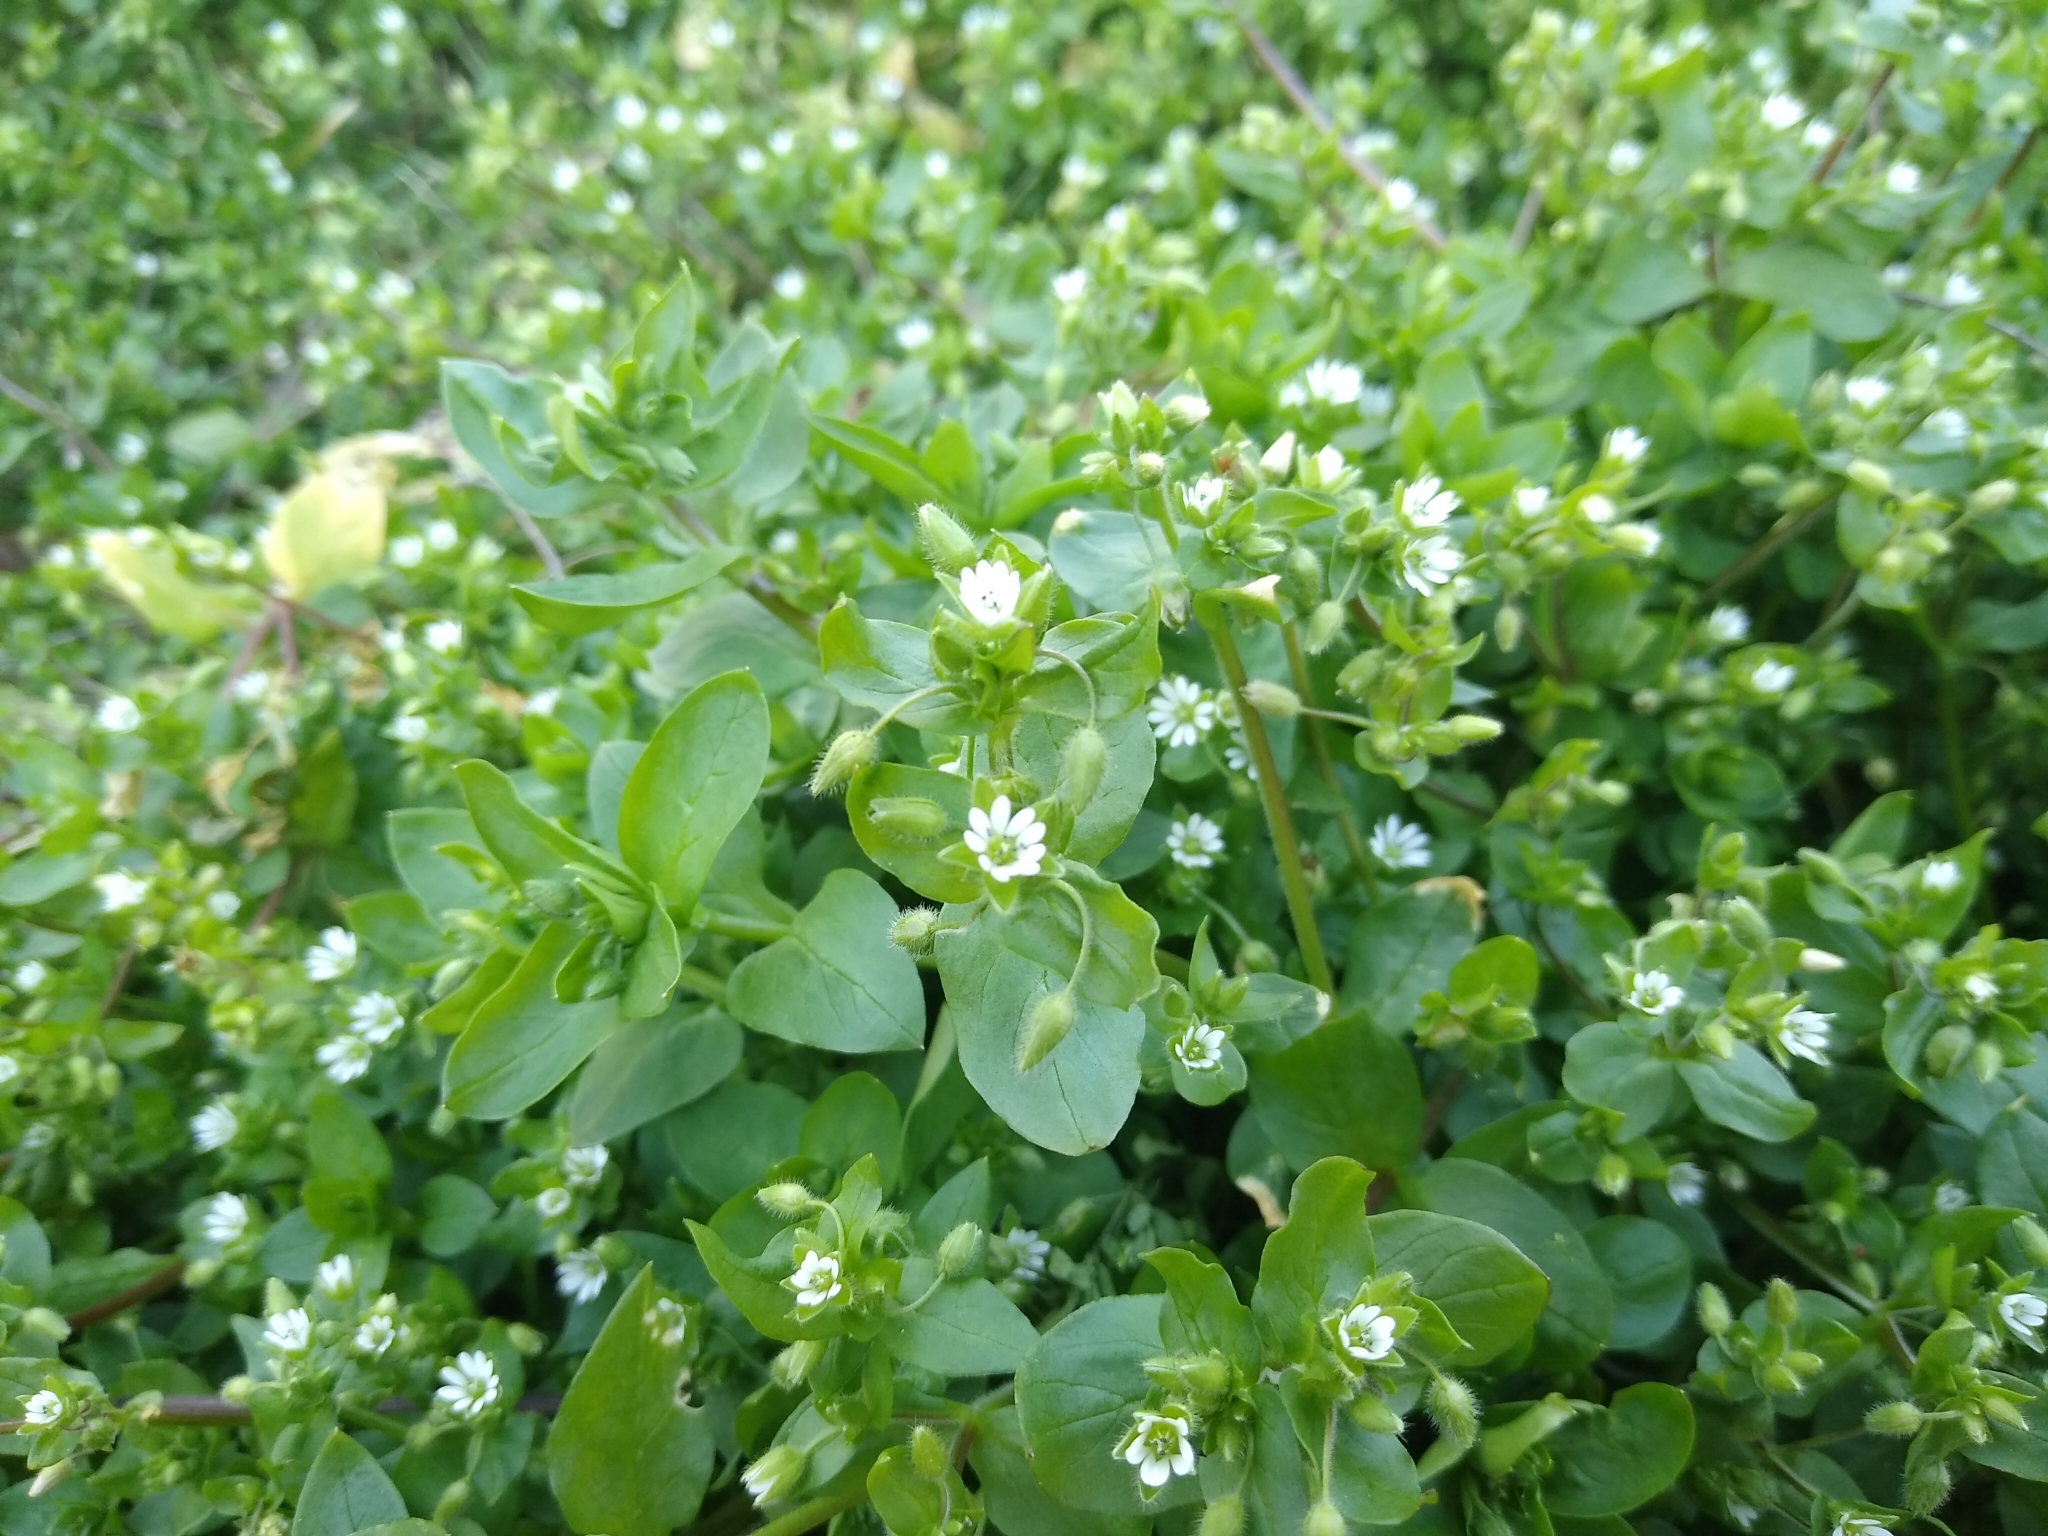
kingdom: Plantae
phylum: Tracheophyta
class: Magnoliopsida
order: Caryophyllales
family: Caryophyllaceae
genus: Stellaria
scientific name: Stellaria media
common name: Common chickweed
